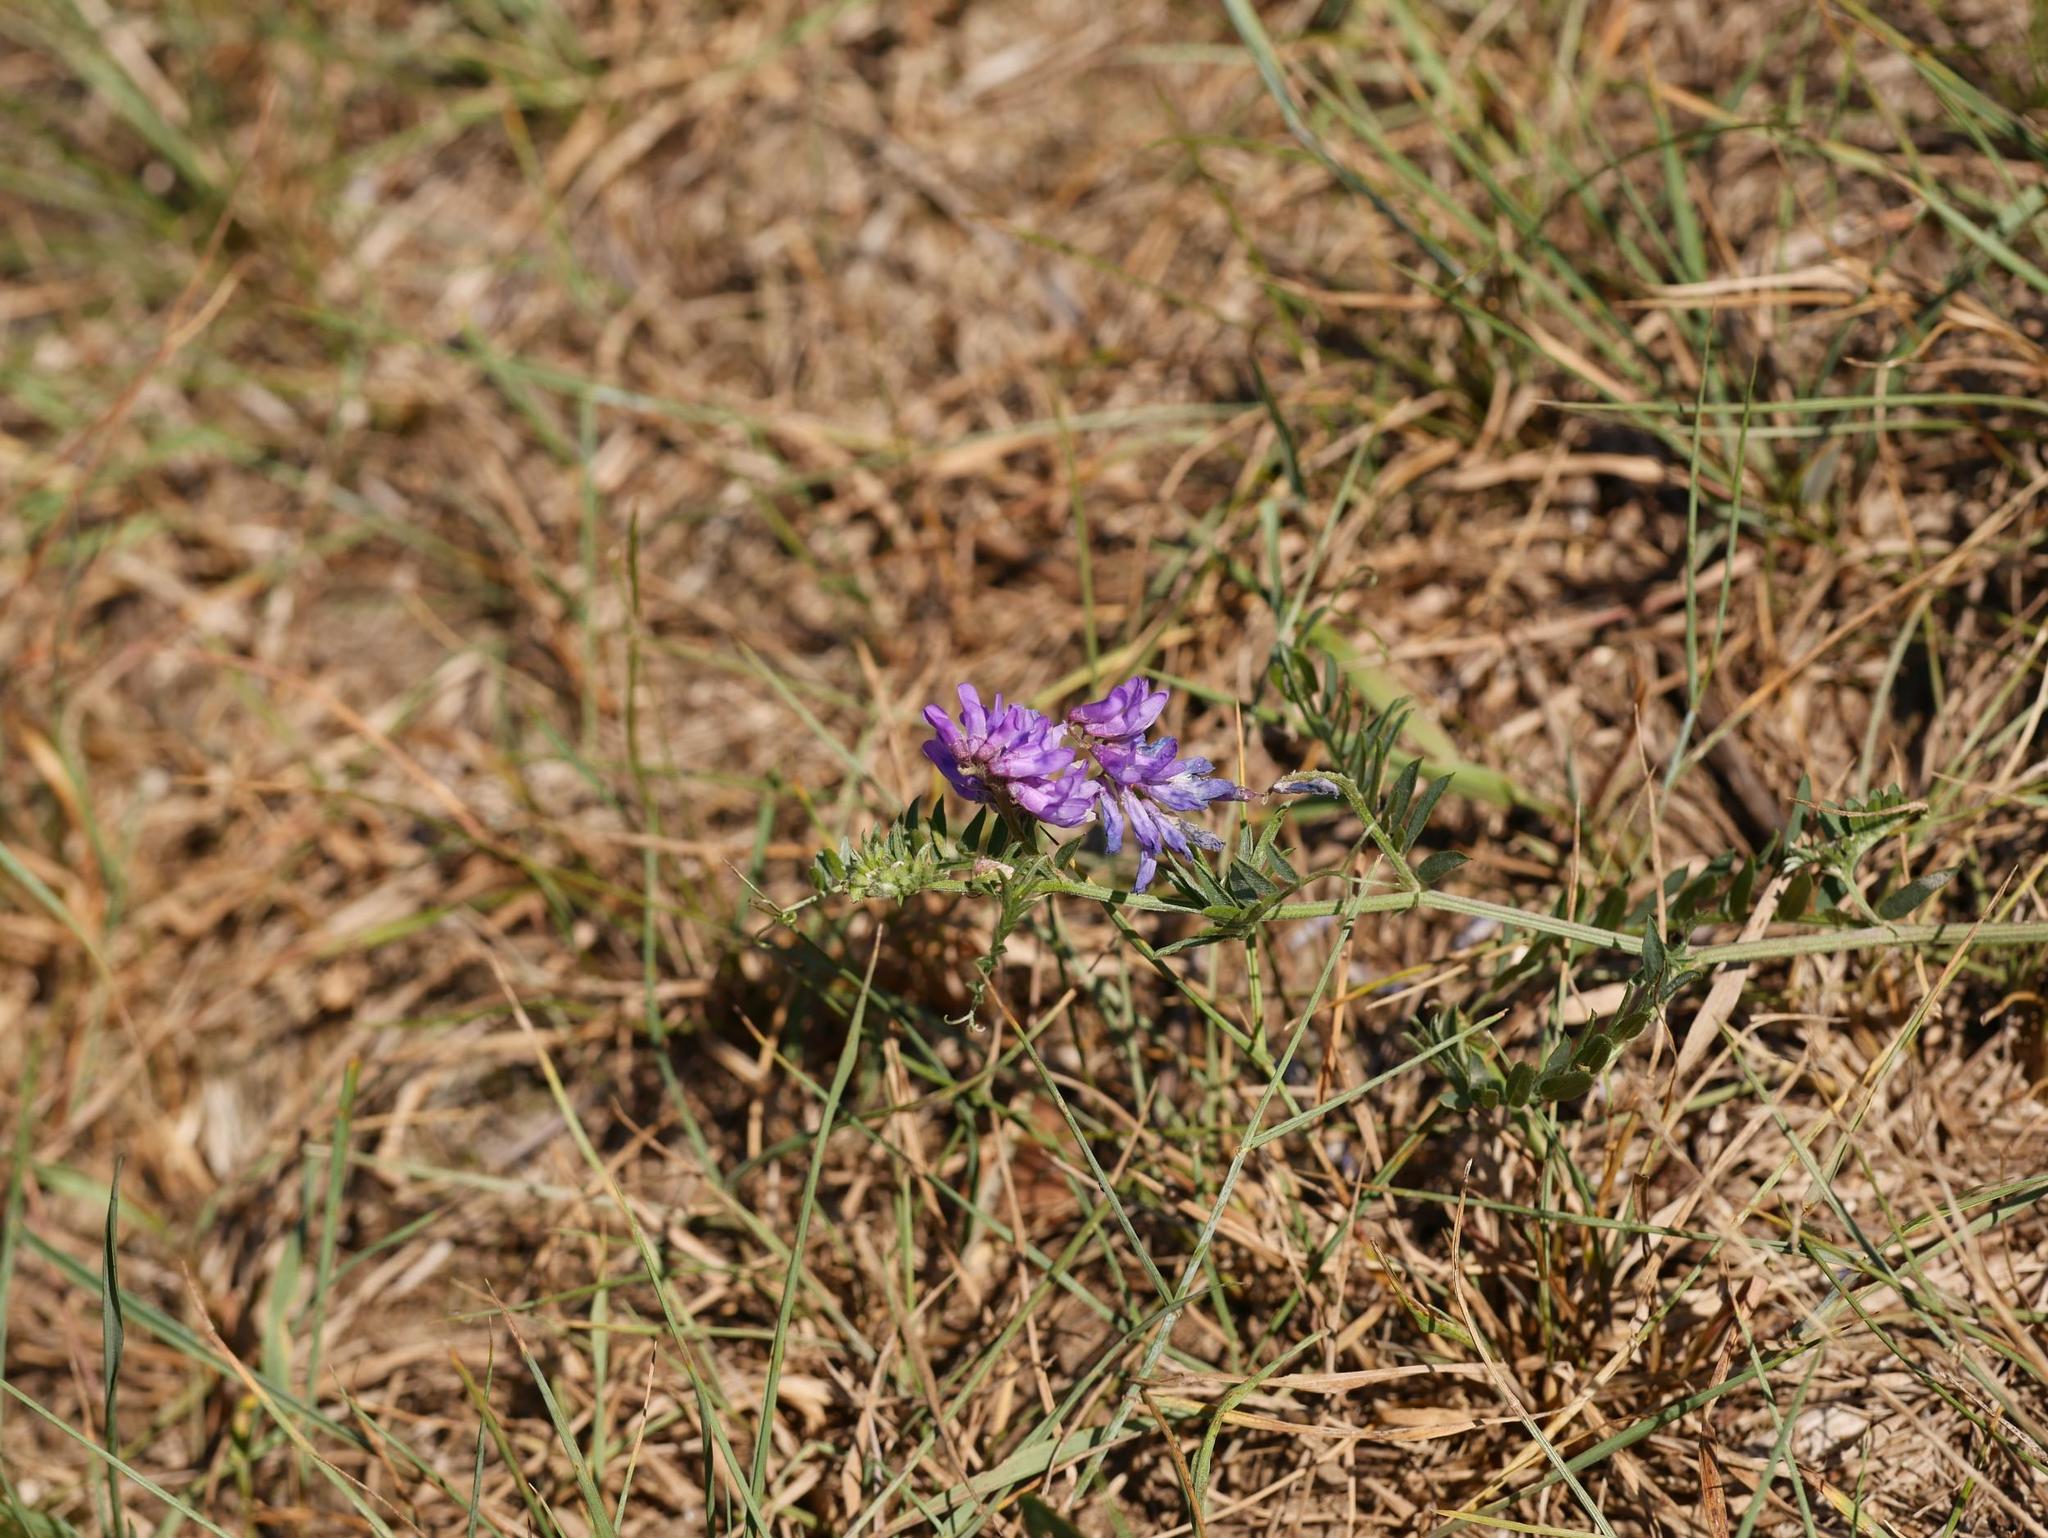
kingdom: Plantae
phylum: Tracheophyta
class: Magnoliopsida
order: Fabales
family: Fabaceae
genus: Vicia
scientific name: Vicia cracca
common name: Bird vetch
